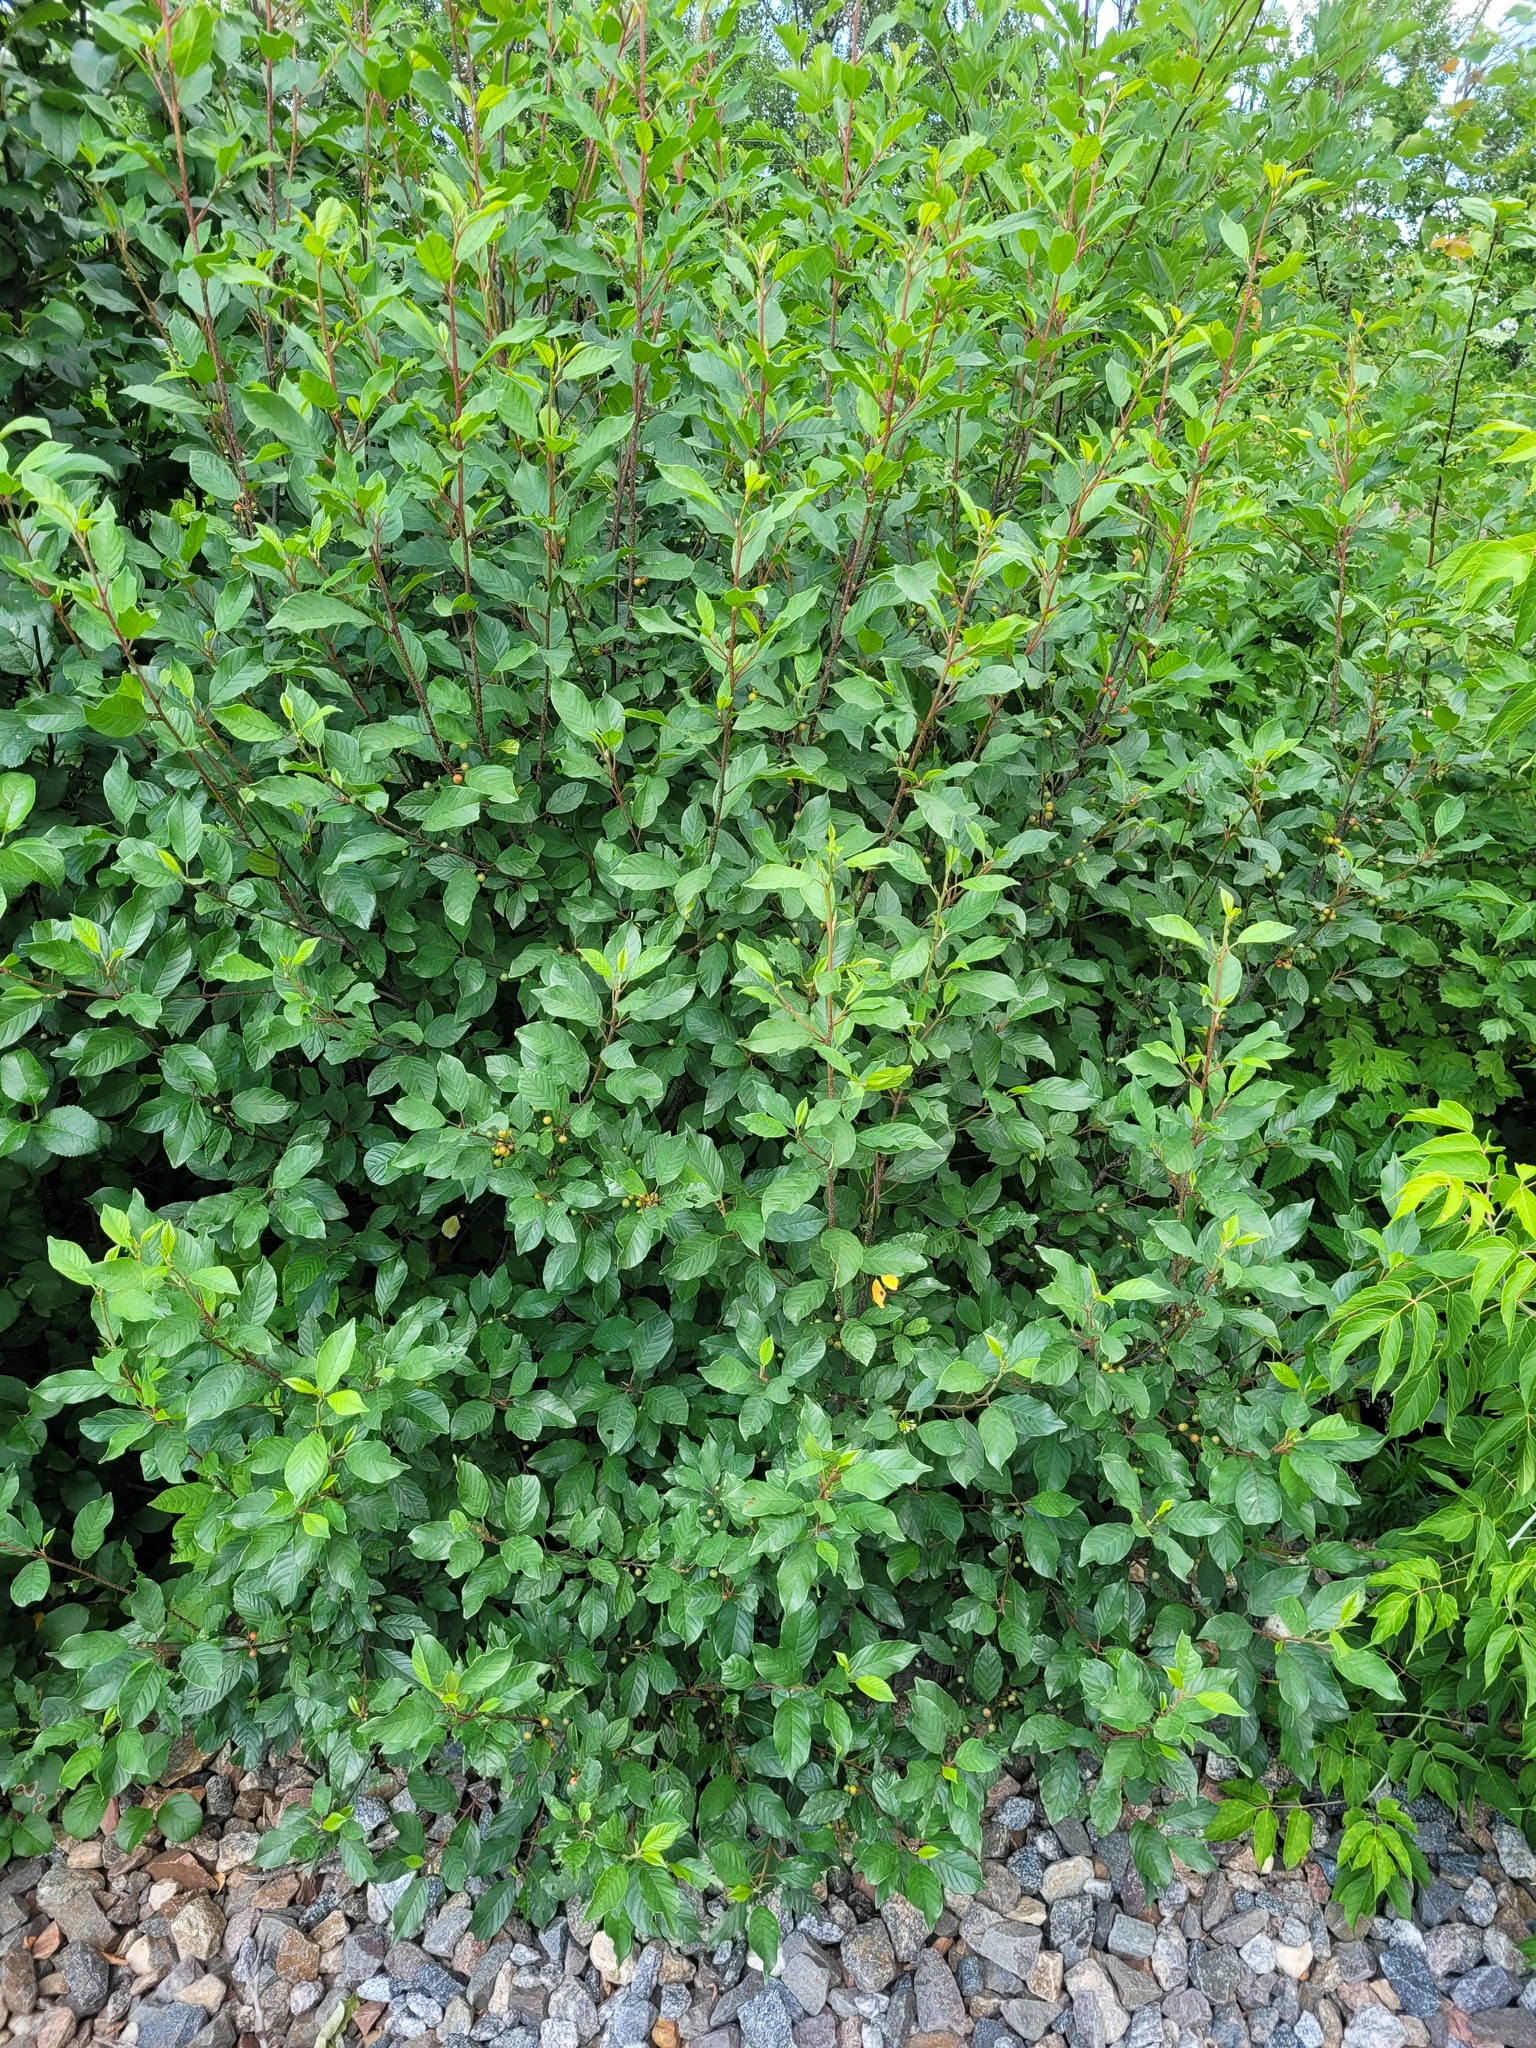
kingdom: Plantae
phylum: Tracheophyta
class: Magnoliopsida
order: Rosales
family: Rhamnaceae
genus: Frangula
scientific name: Frangula alnus
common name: Alder buckthorn
